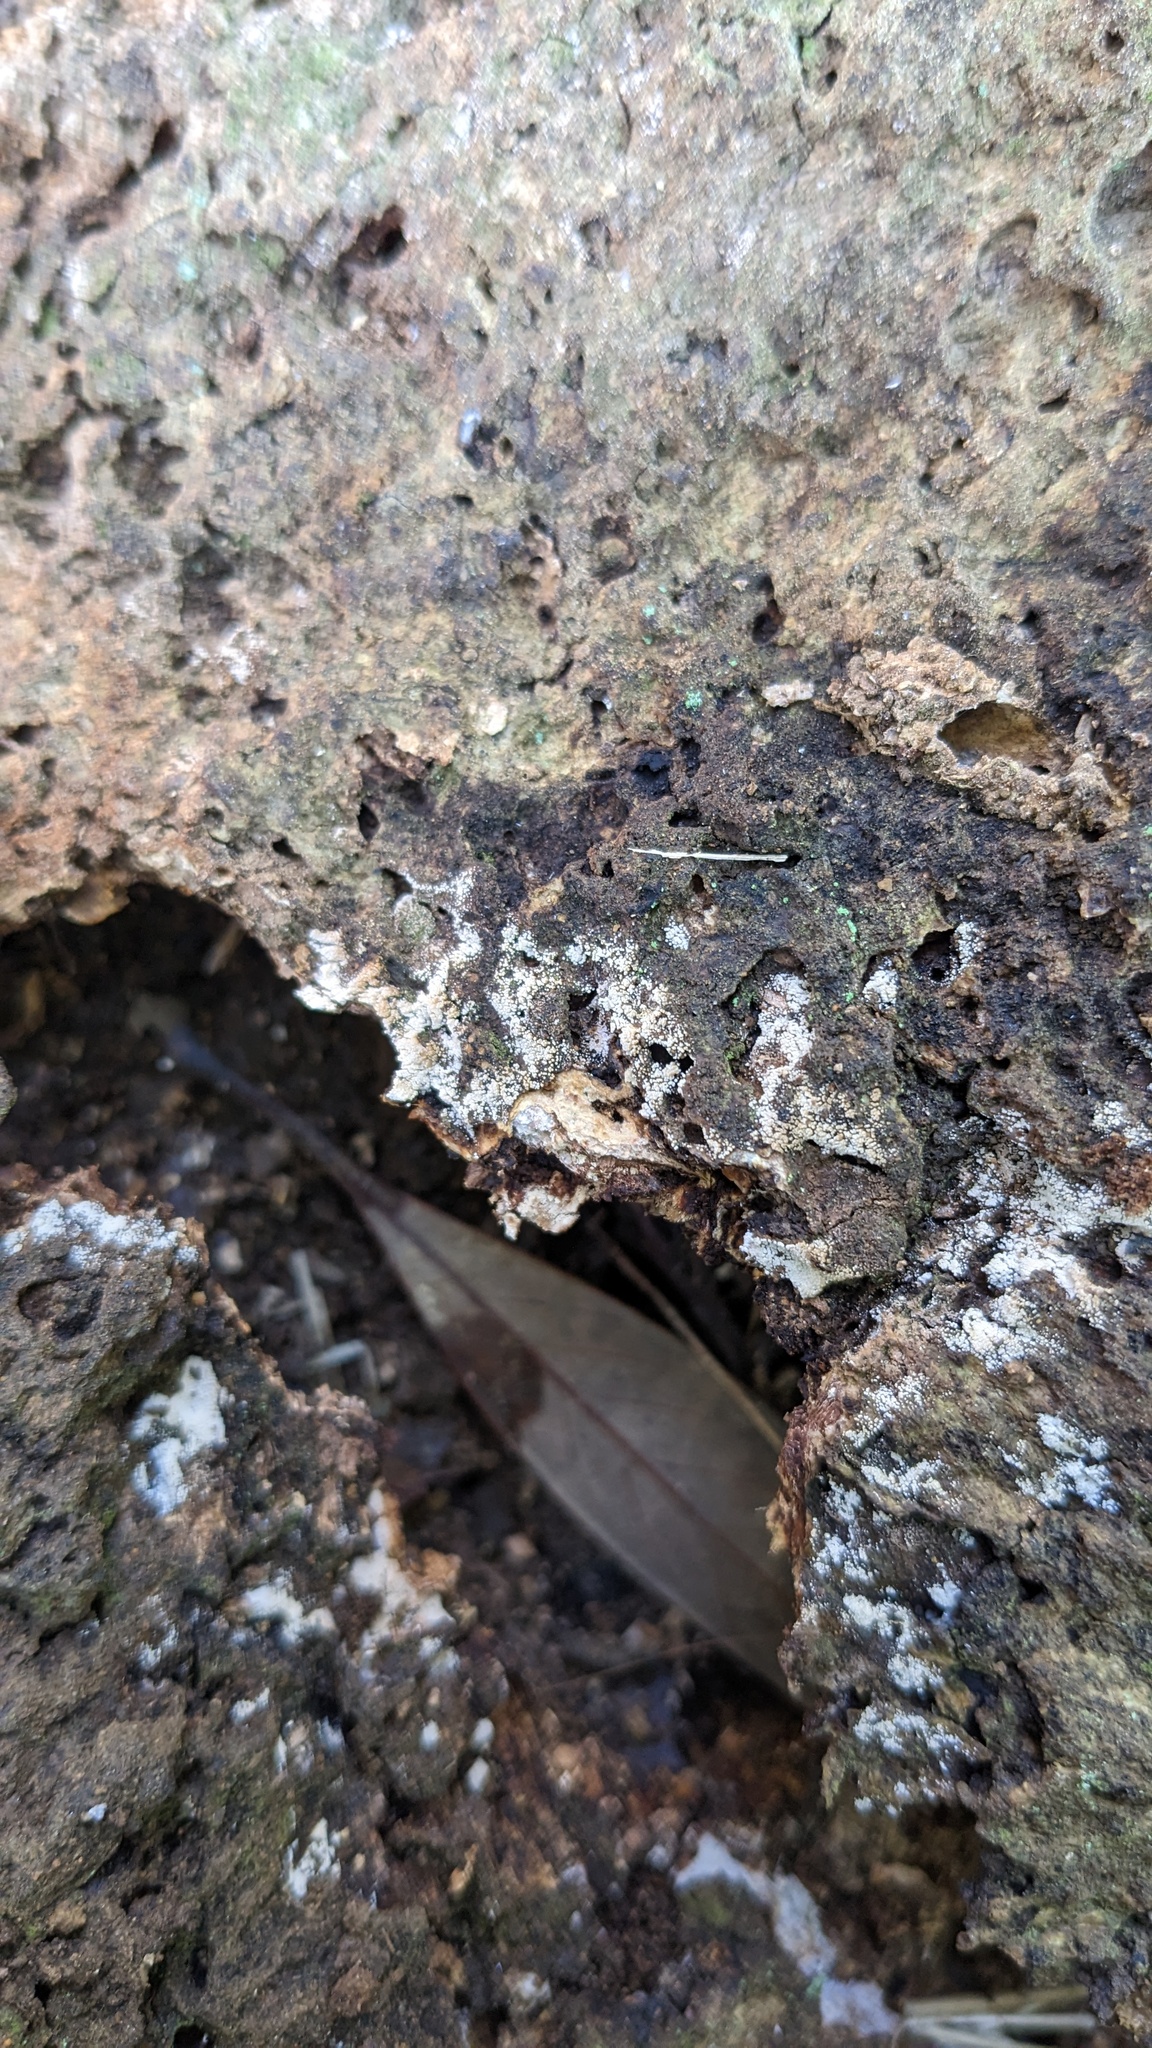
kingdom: Fungi
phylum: Basidiomycota
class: Agaricomycetes
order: Agaricales
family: Marasmiaceae
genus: Henningsomyces
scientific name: Henningsomyces candidus
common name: White tubelet
